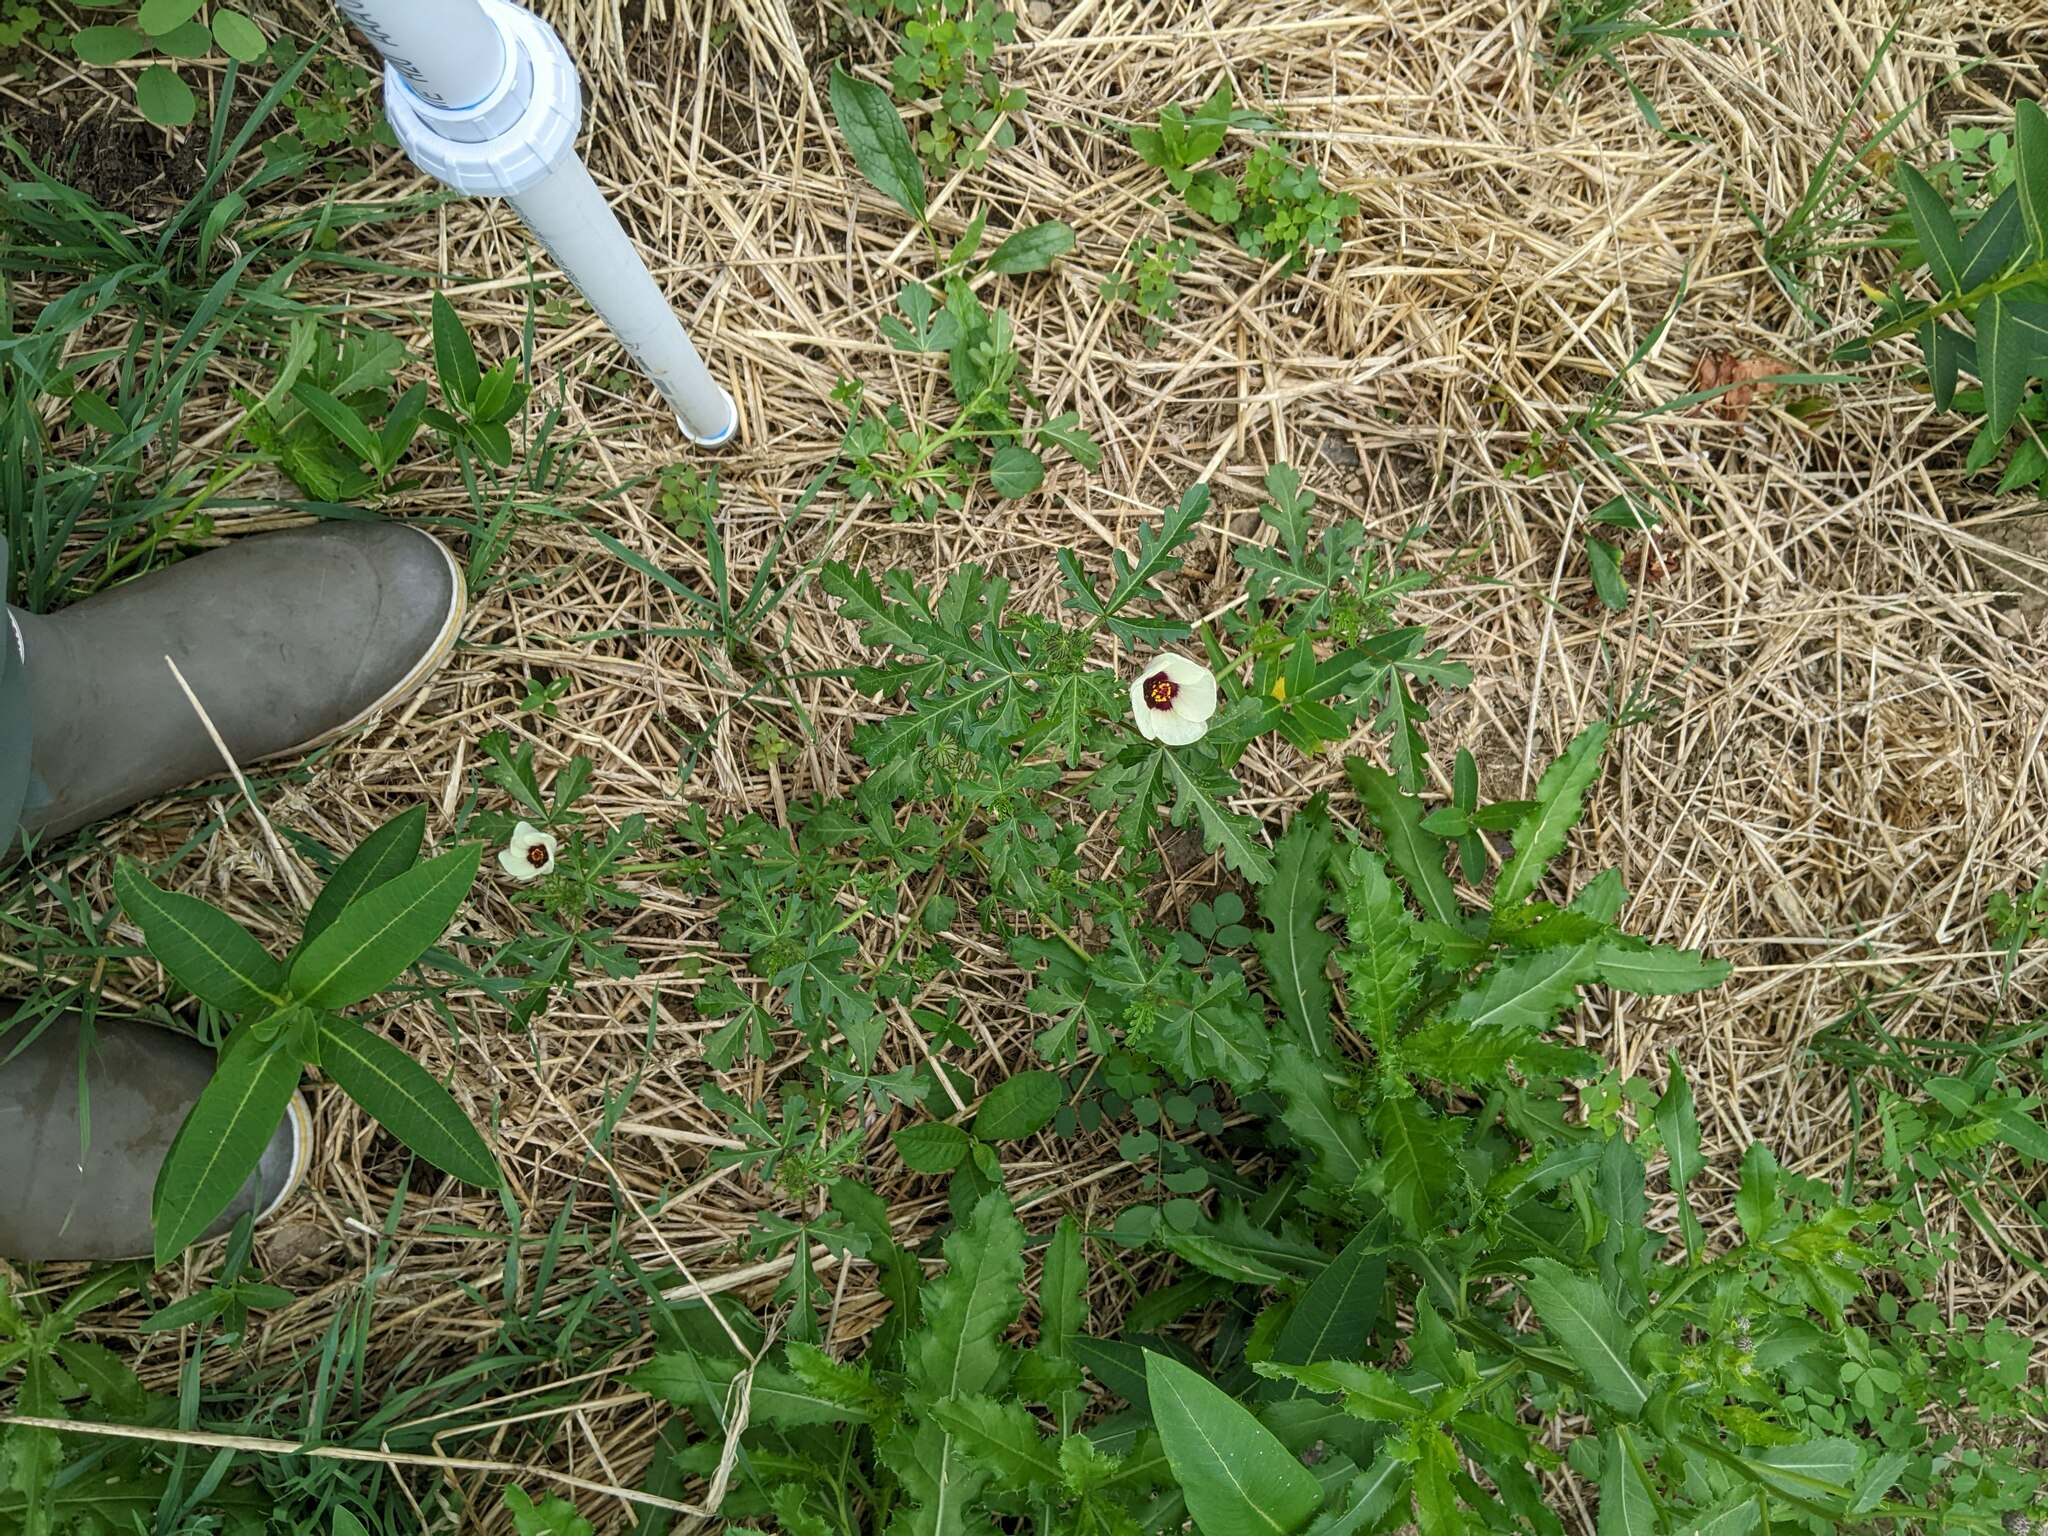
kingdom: Plantae
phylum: Tracheophyta
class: Magnoliopsida
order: Malvales
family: Malvaceae
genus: Hibiscus
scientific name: Hibiscus trionum
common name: Bladder ketmia
